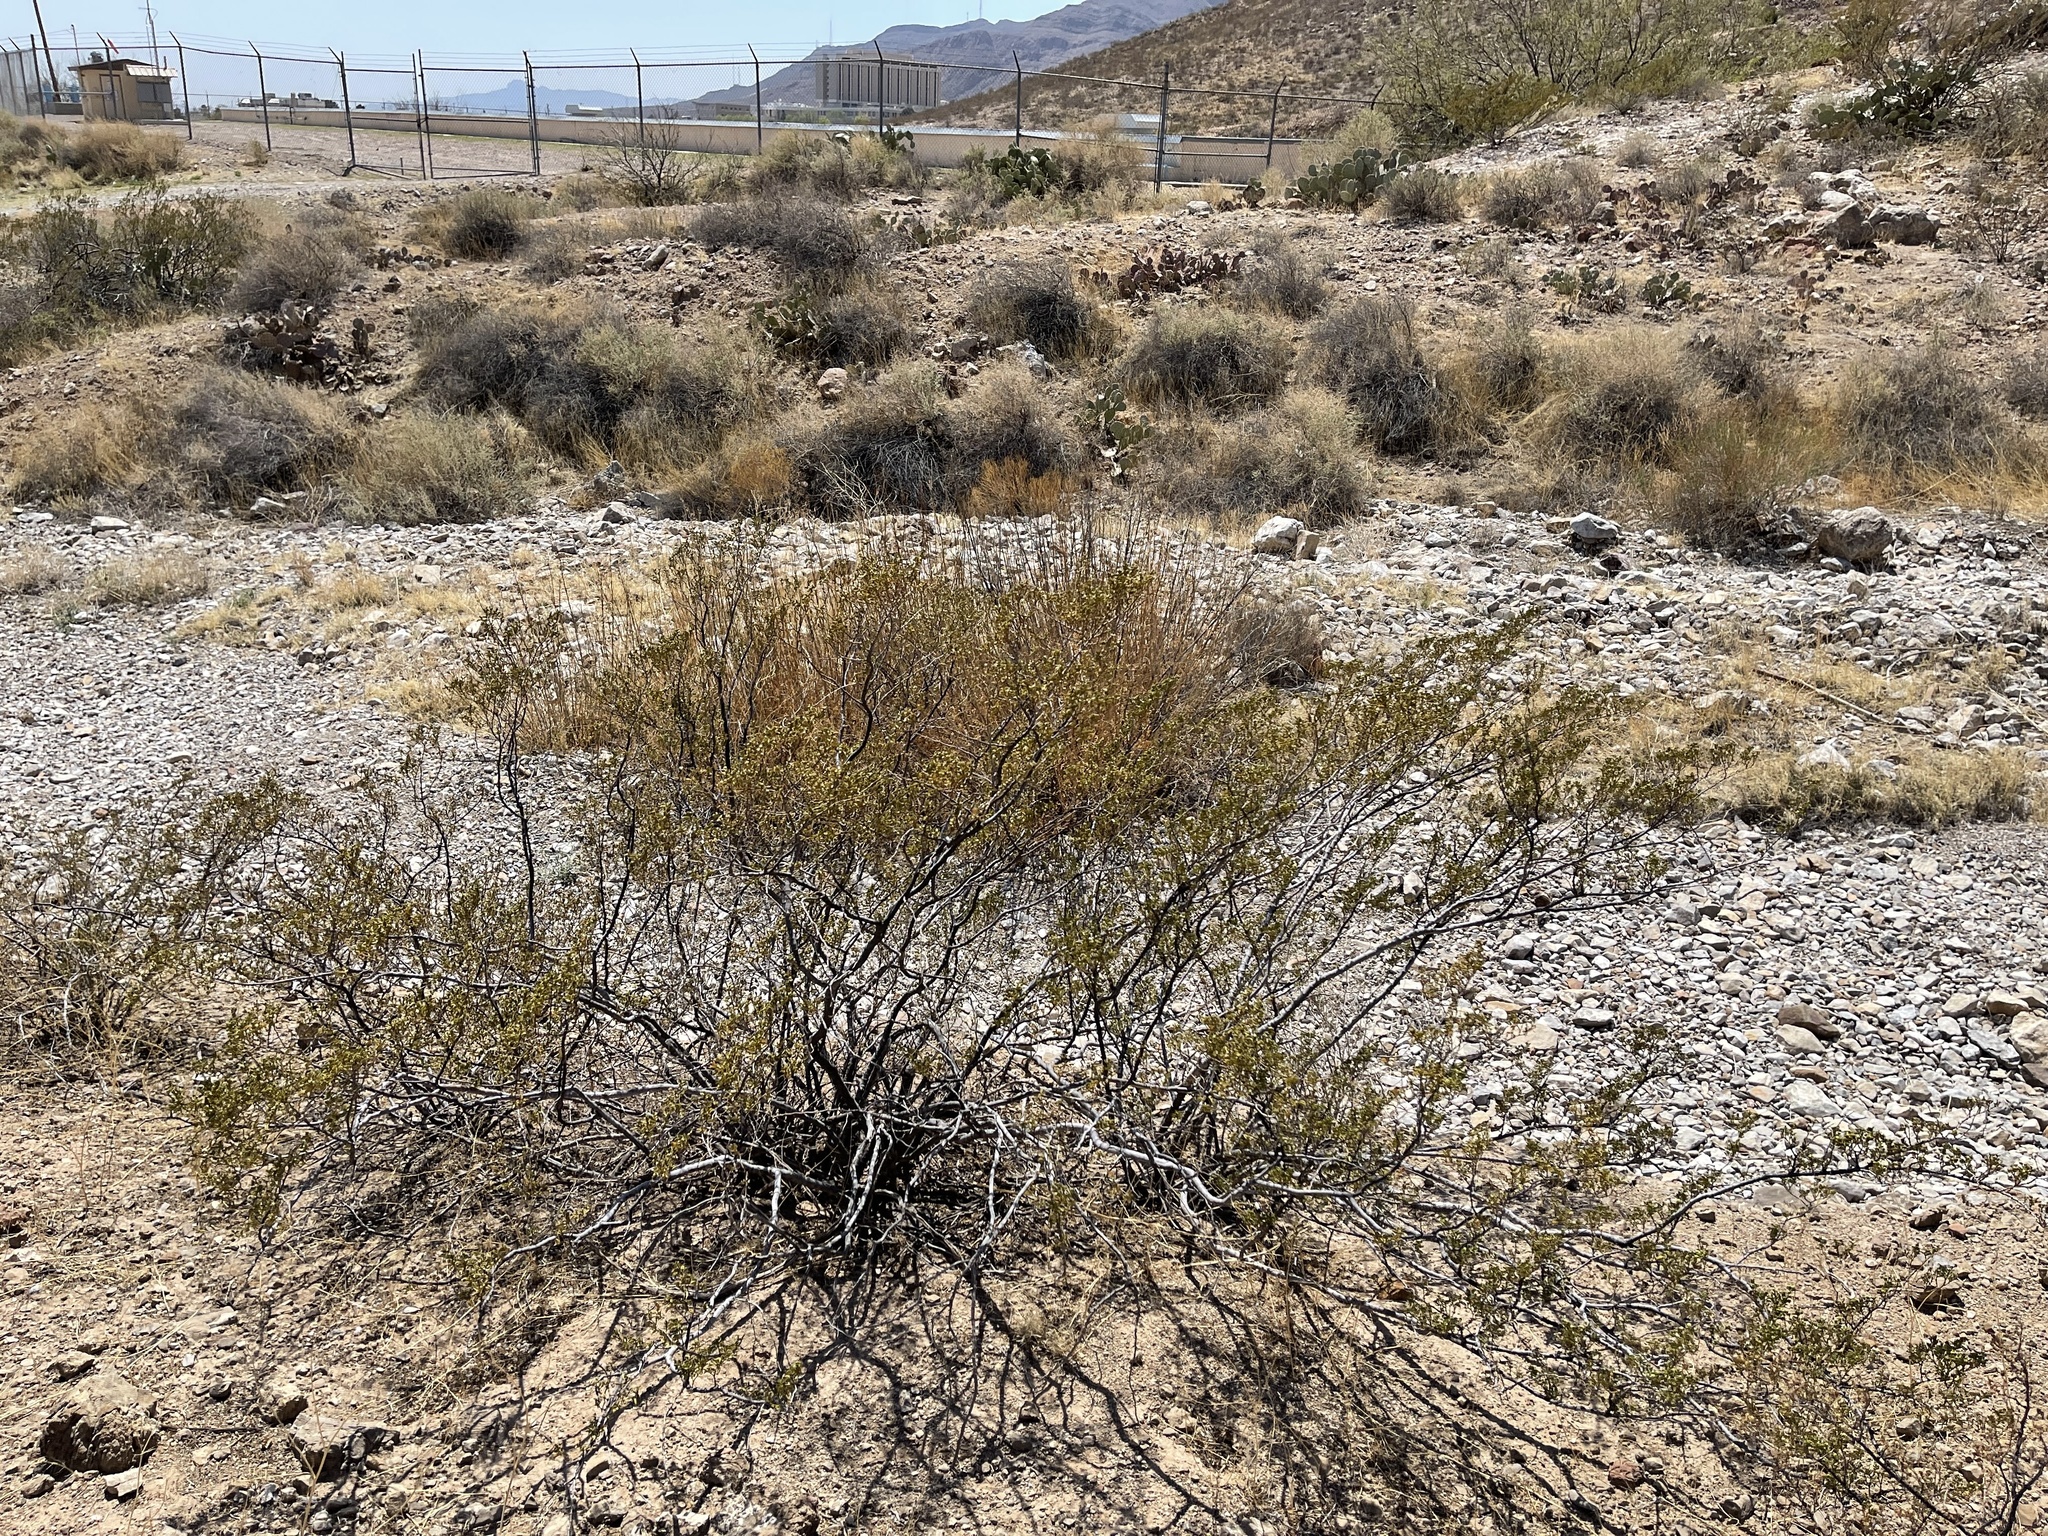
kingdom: Plantae
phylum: Tracheophyta
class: Magnoliopsida
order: Zygophyllales
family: Zygophyllaceae
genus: Larrea
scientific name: Larrea tridentata
